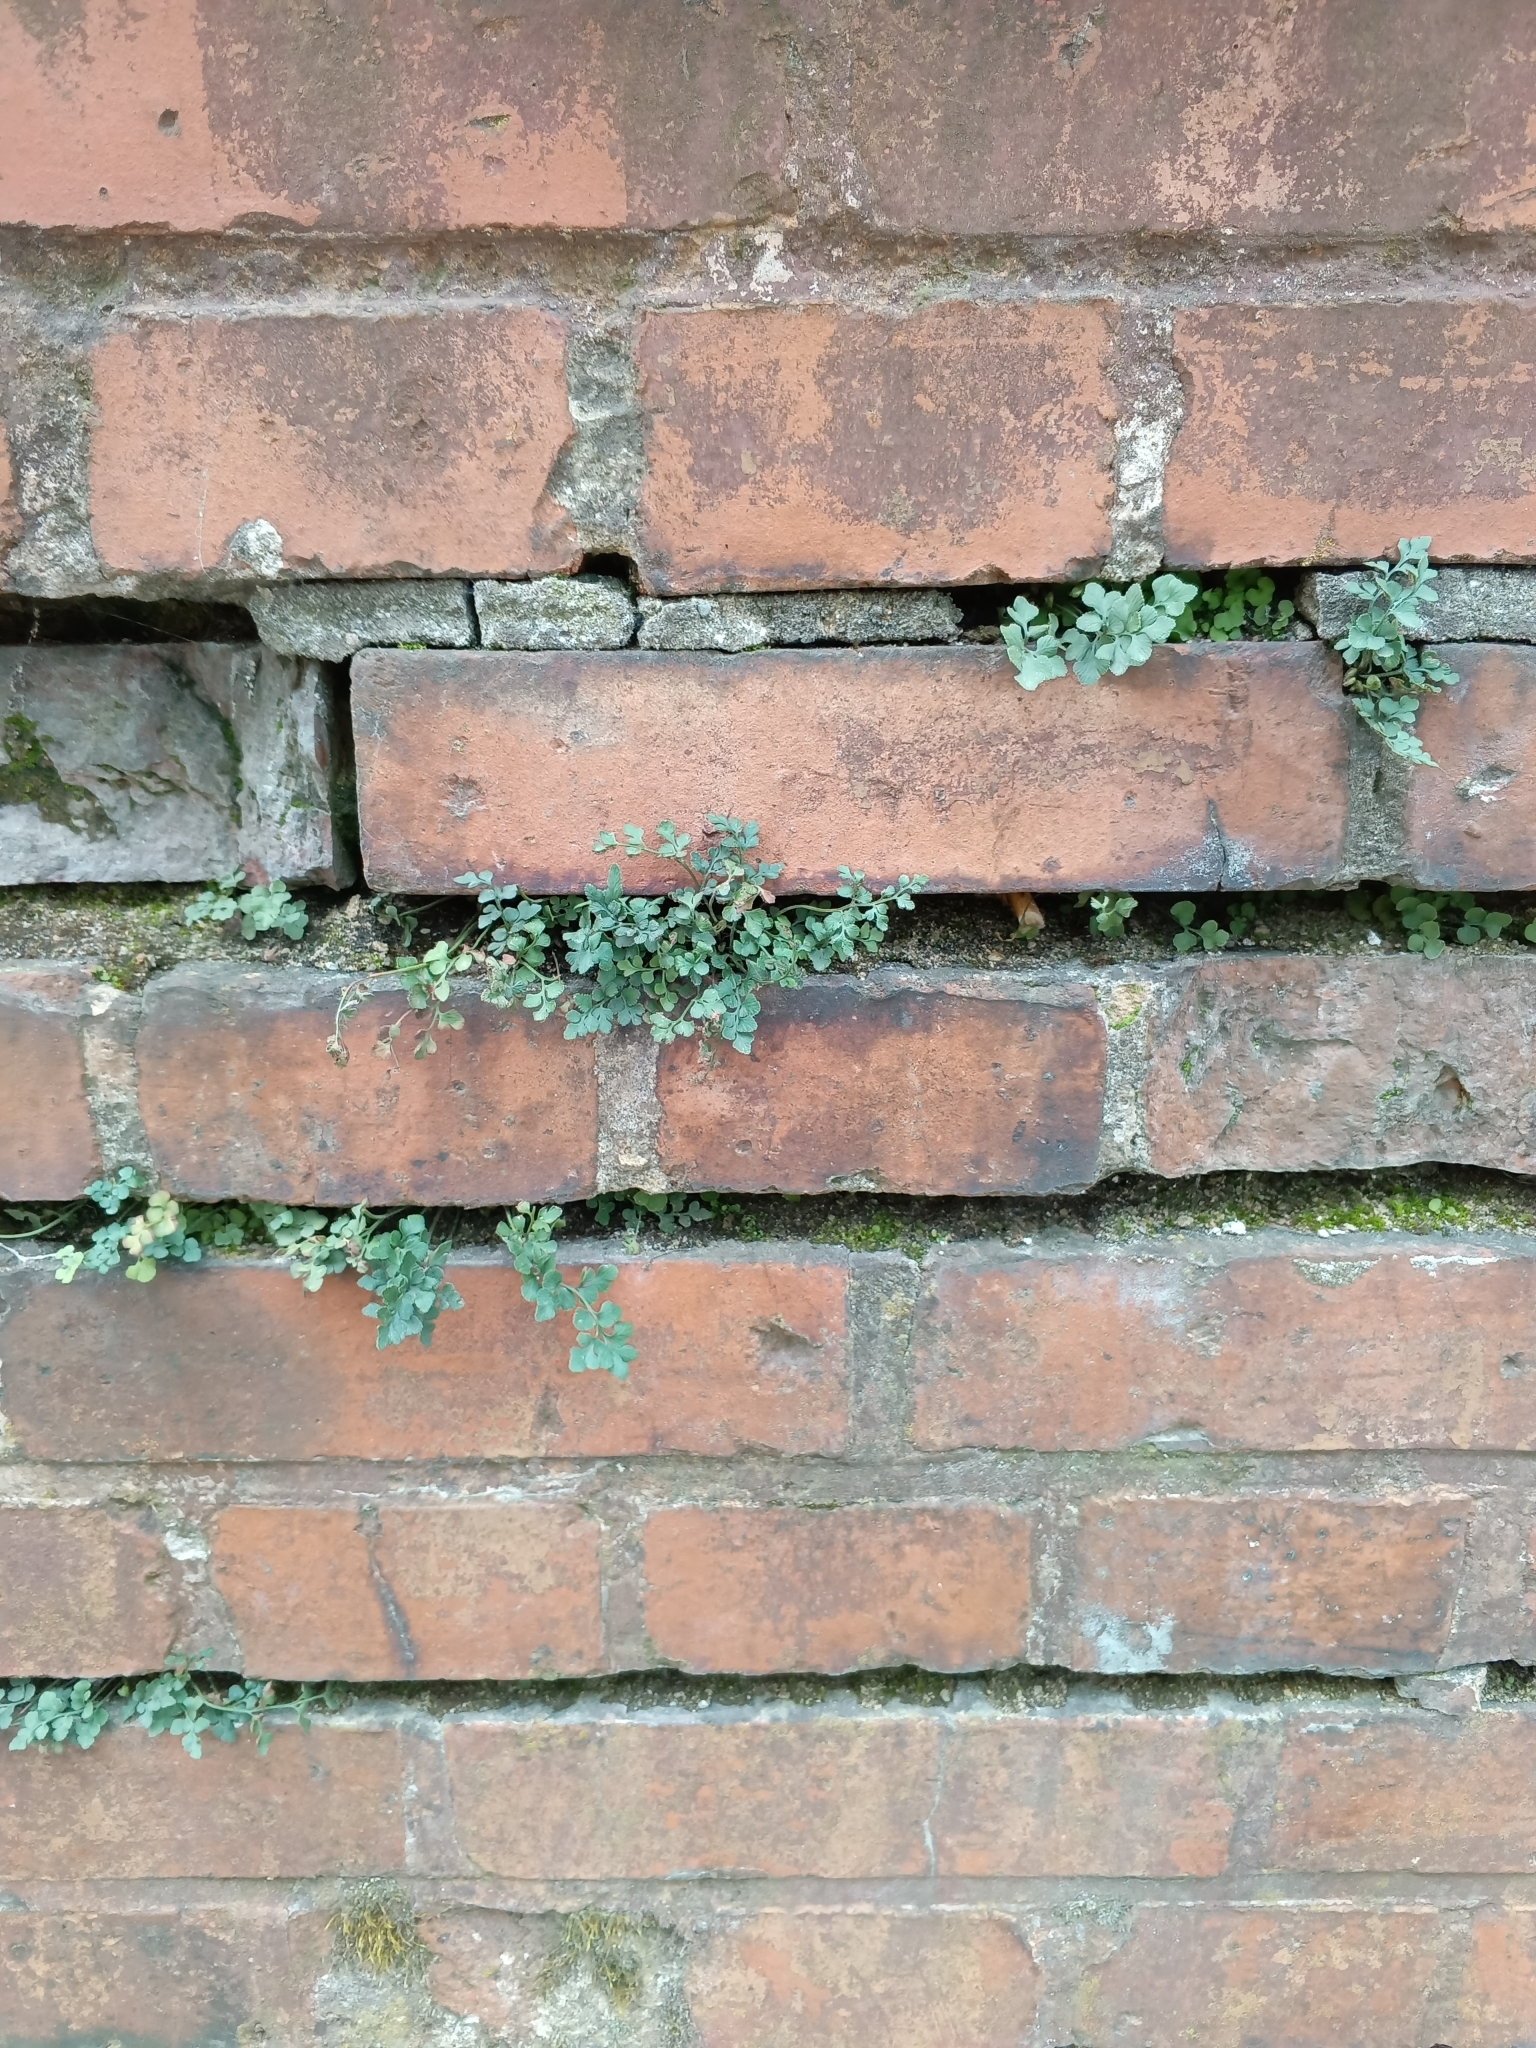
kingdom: Plantae
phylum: Tracheophyta
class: Polypodiopsida
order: Polypodiales
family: Aspleniaceae
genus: Asplenium
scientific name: Asplenium ruta-muraria
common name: Wall-rue
